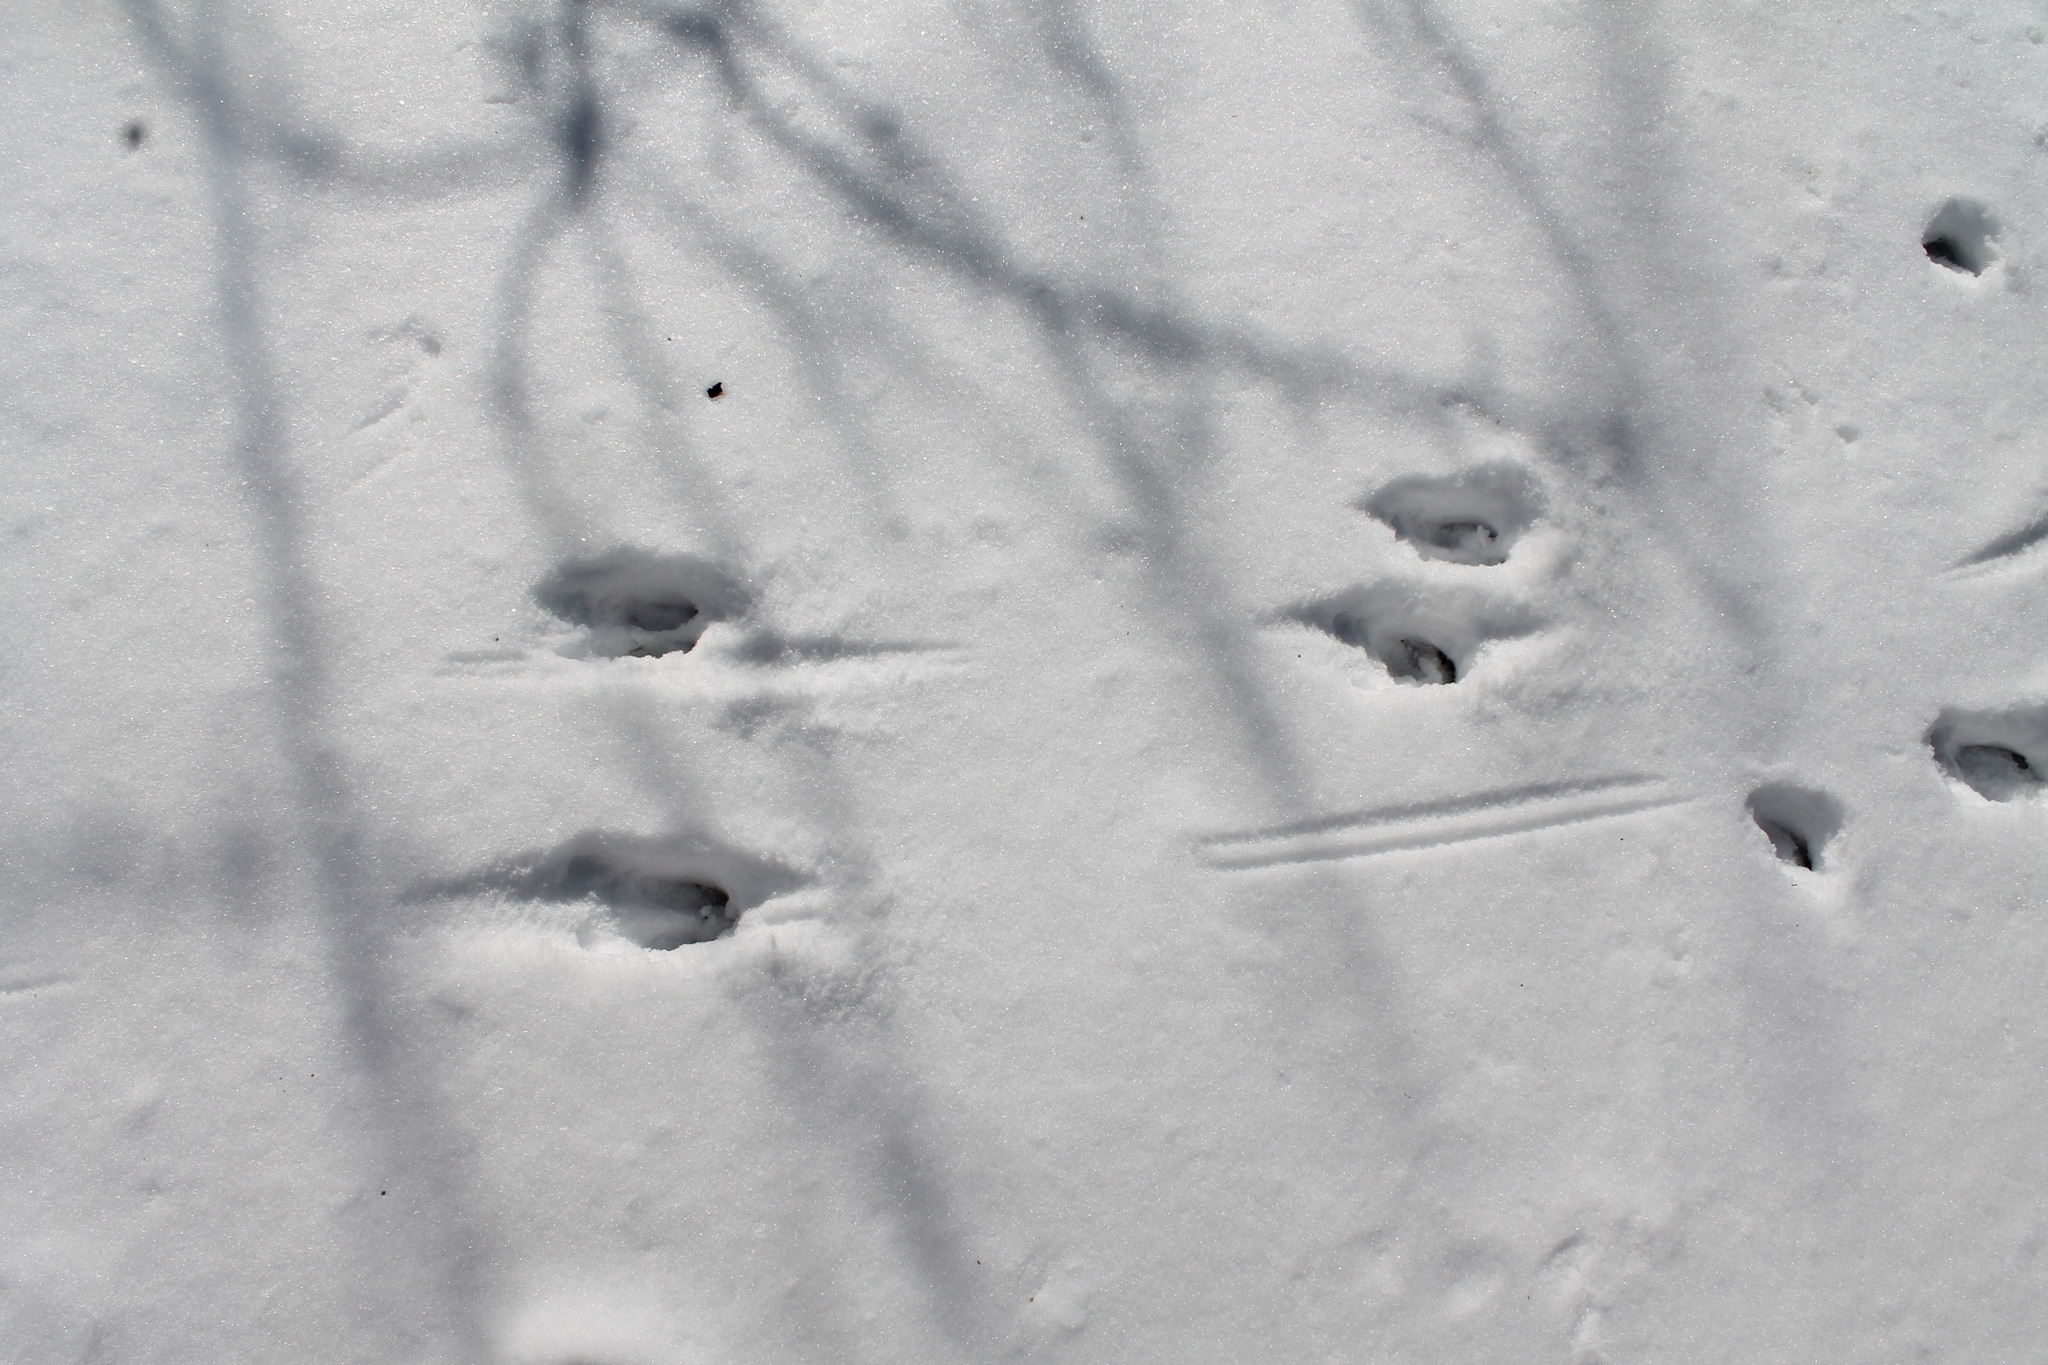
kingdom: Animalia
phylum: Chordata
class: Mammalia
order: Artiodactyla
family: Cervidae
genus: Odocoileus
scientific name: Odocoileus virginianus
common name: White-tailed deer
